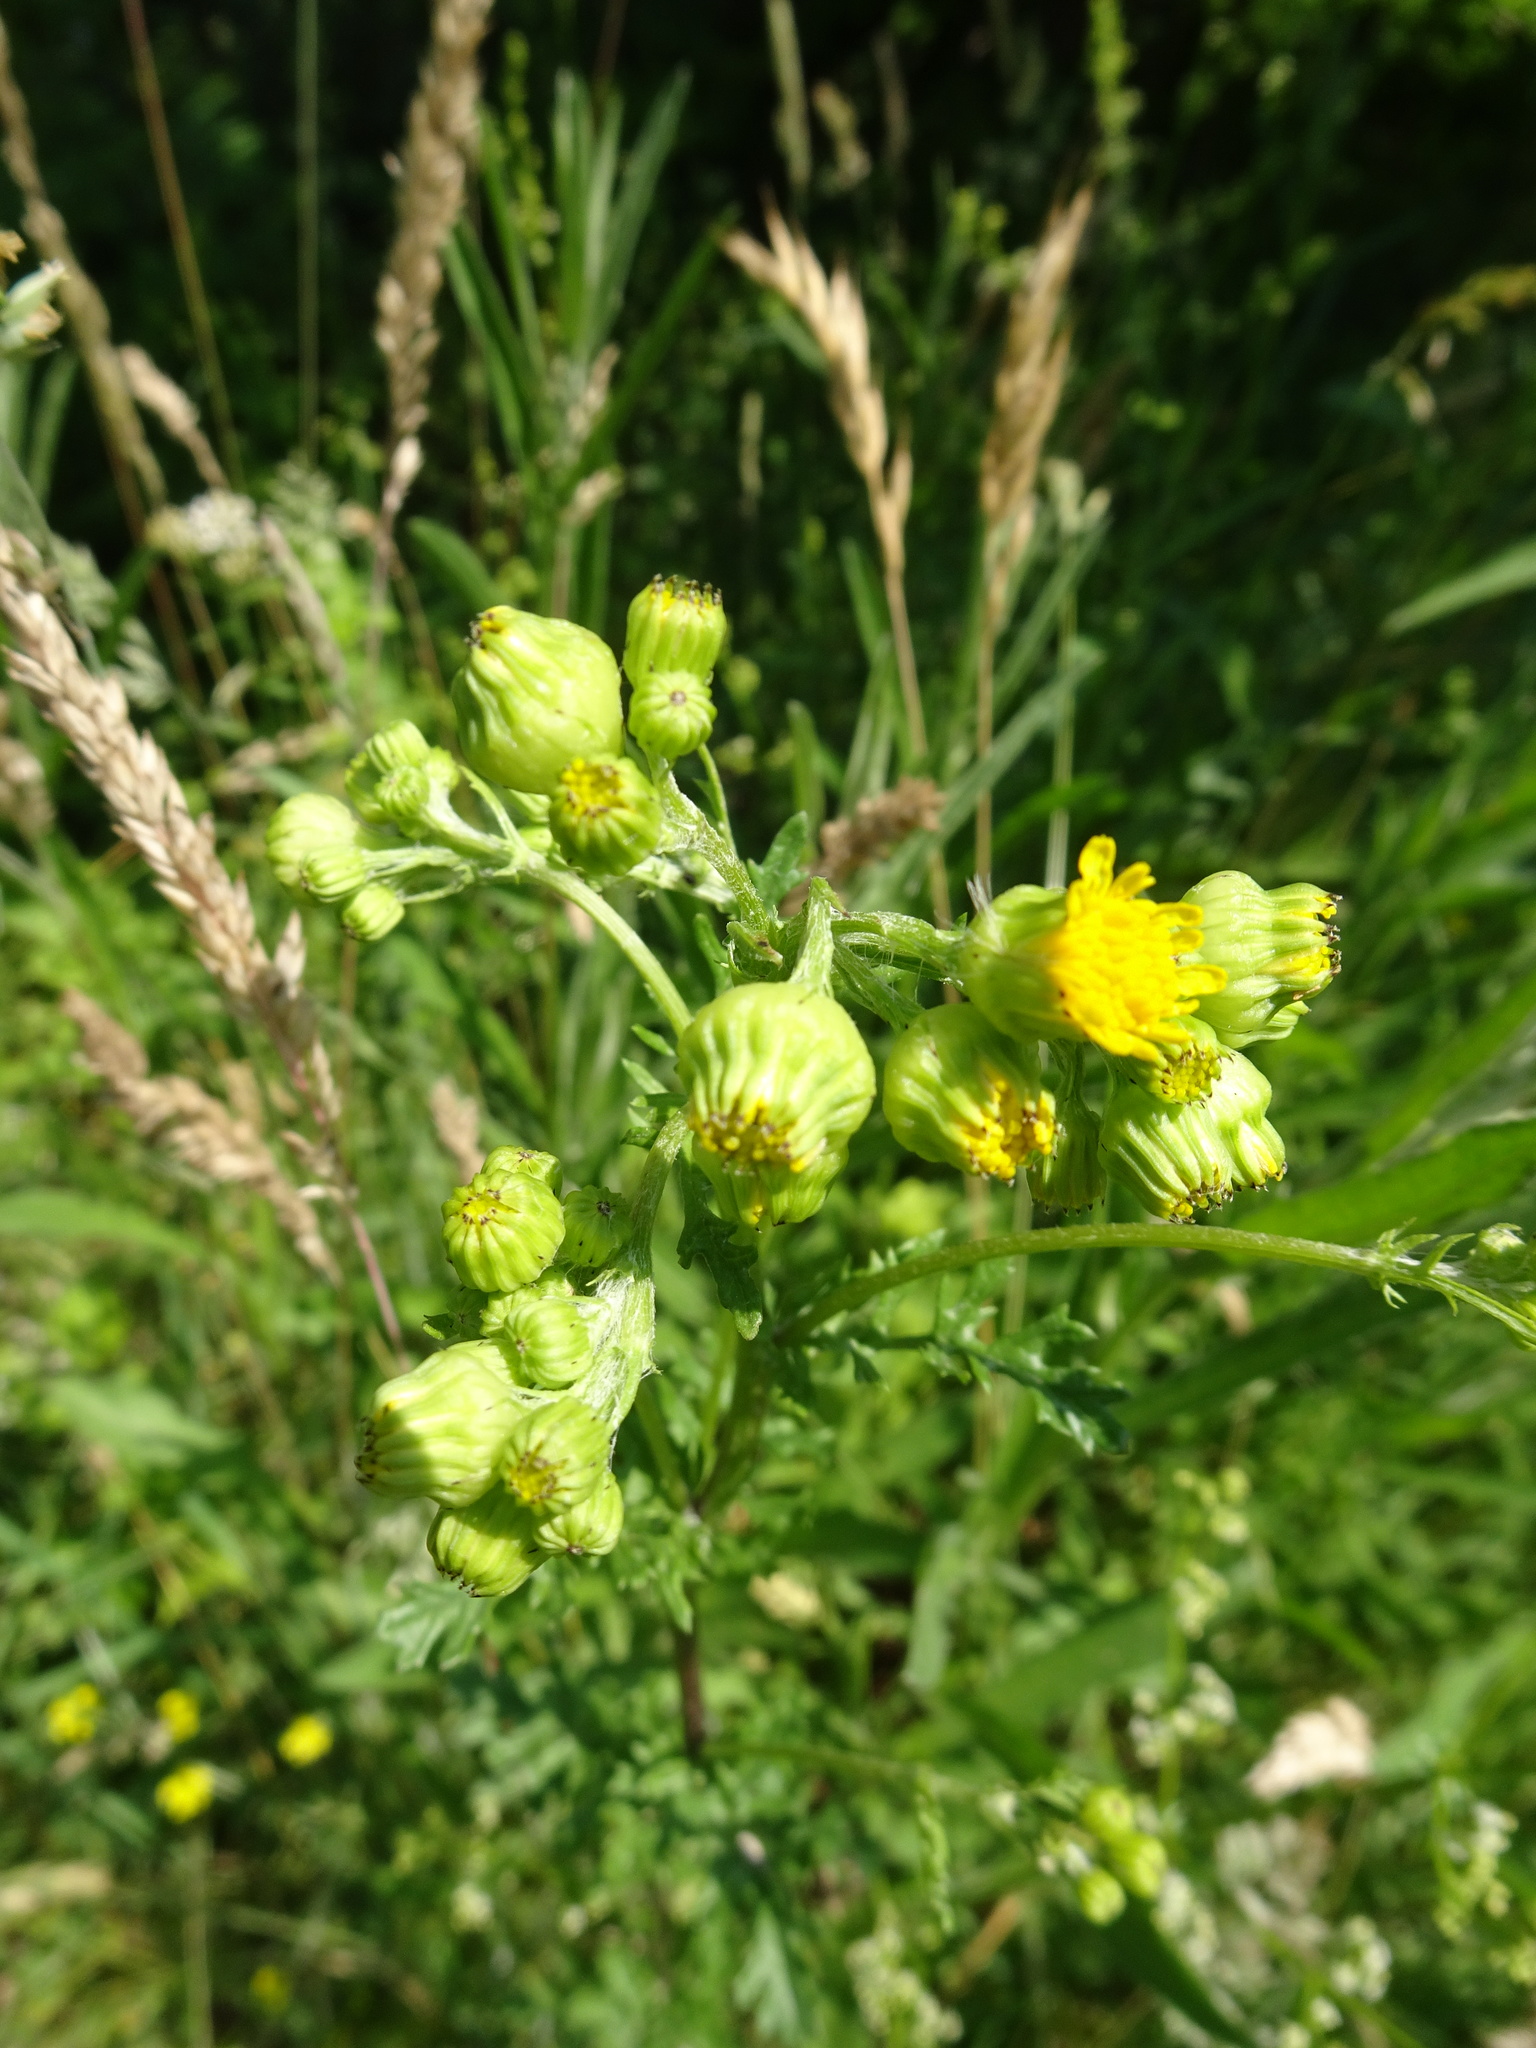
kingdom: Plantae
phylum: Tracheophyta
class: Magnoliopsida
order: Asterales
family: Asteraceae
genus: Jacobaea
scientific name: Jacobaea vulgaris
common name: Stinking willie
